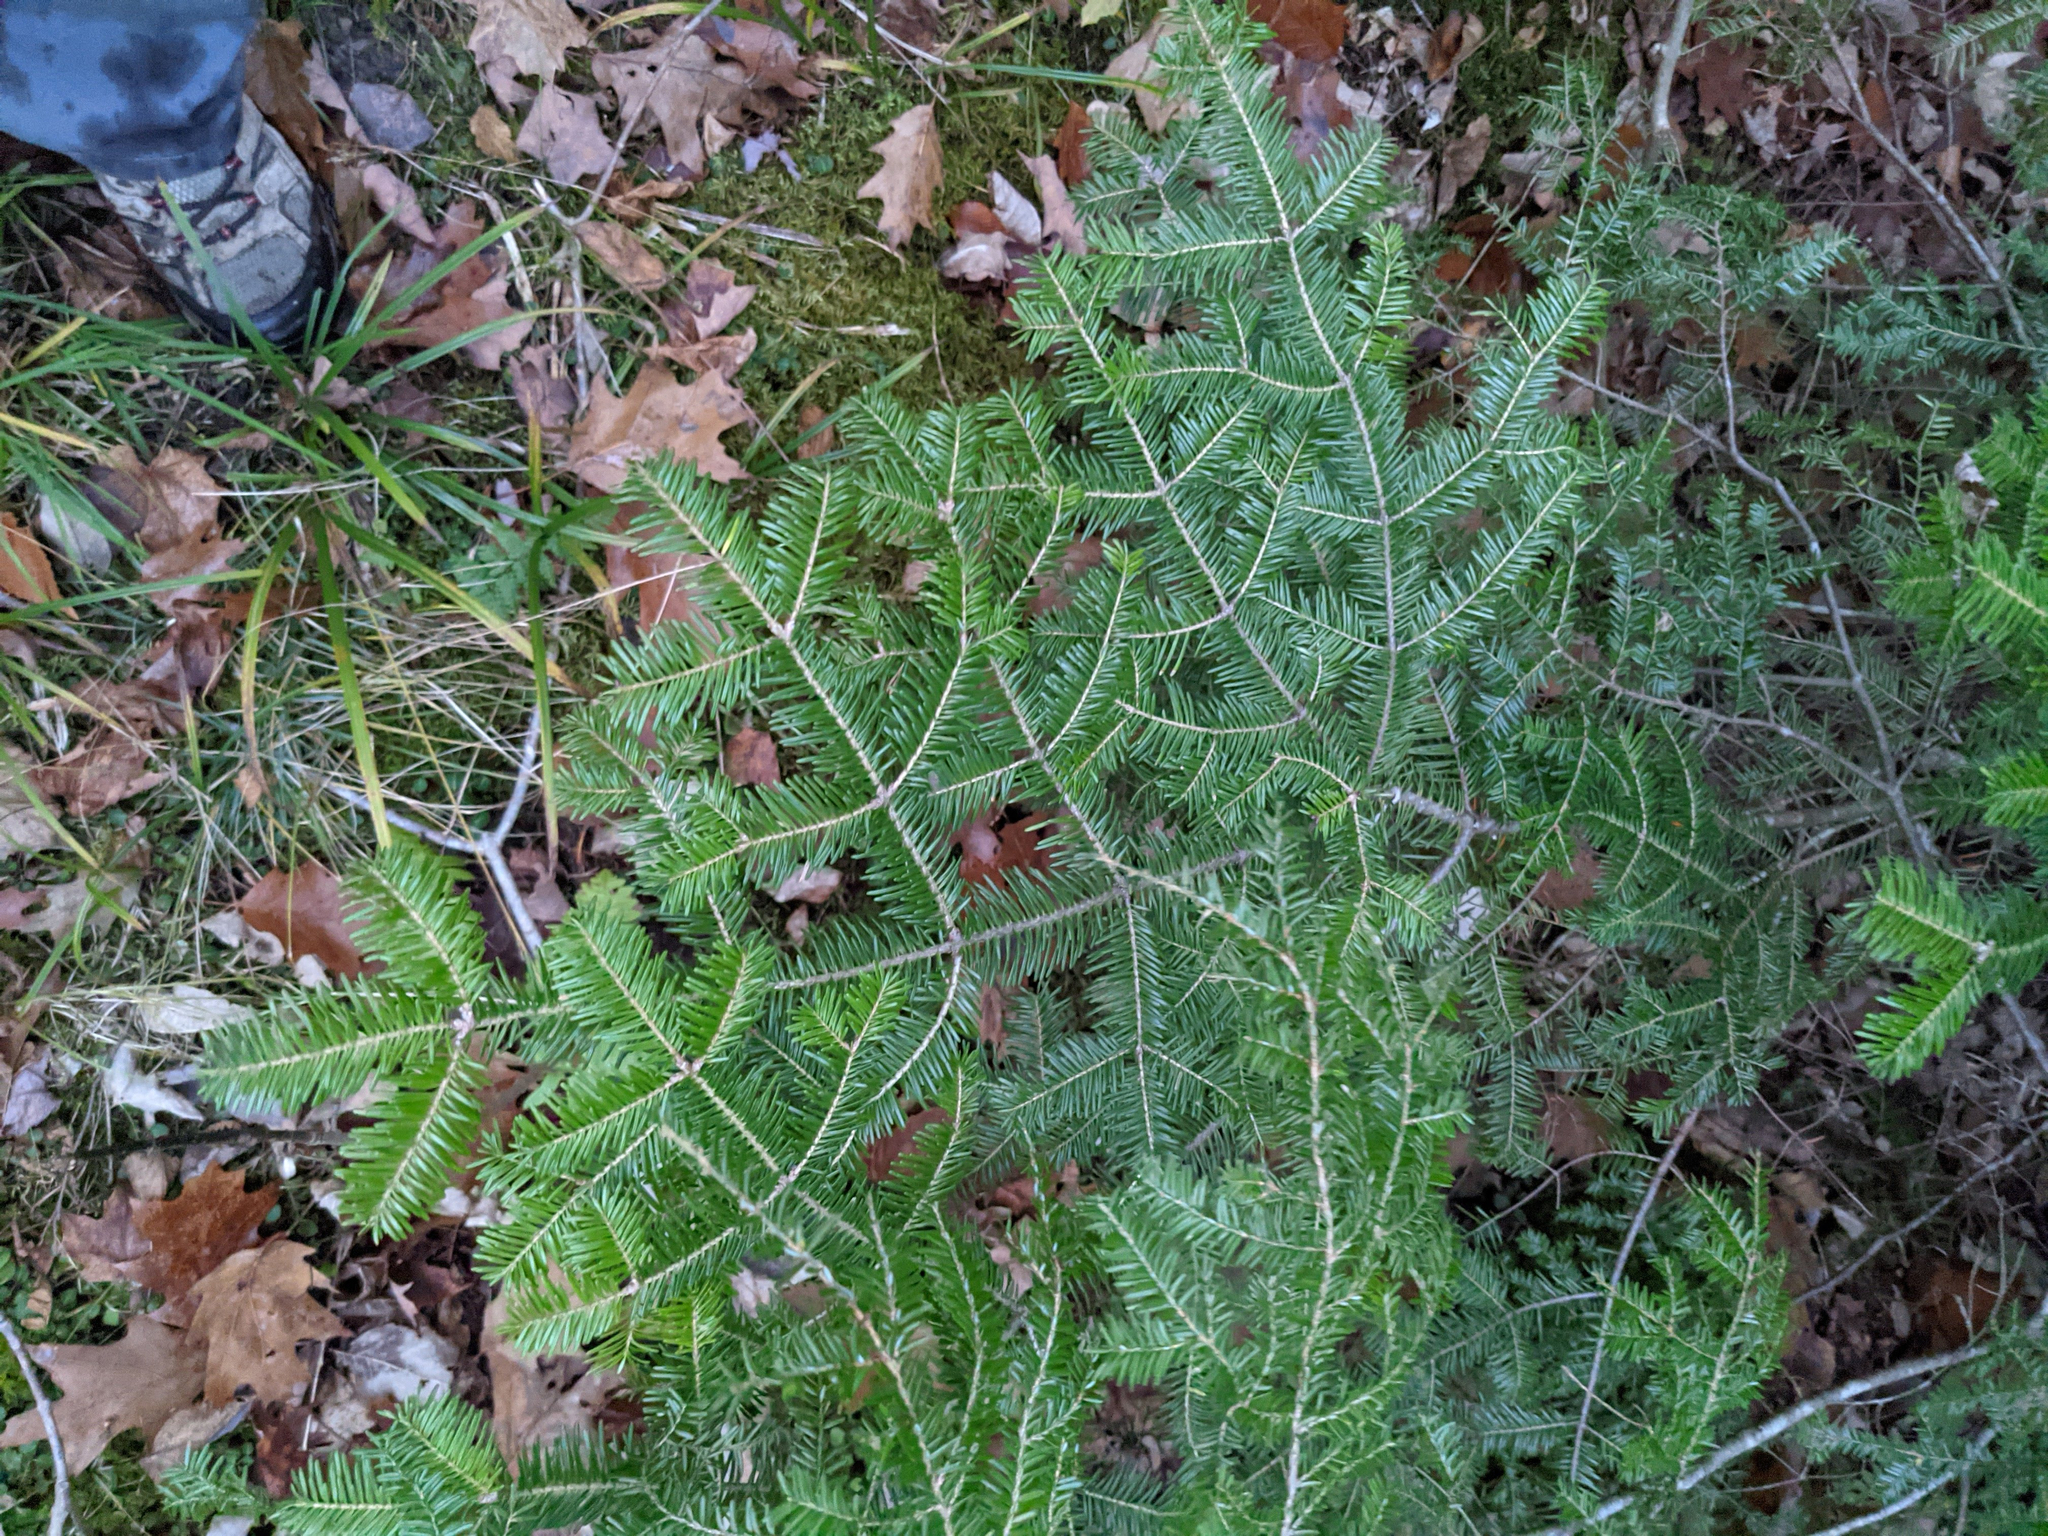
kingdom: Plantae
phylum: Tracheophyta
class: Pinopsida
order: Pinales
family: Pinaceae
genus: Abies
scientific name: Abies balsamea
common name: Balsam fir
